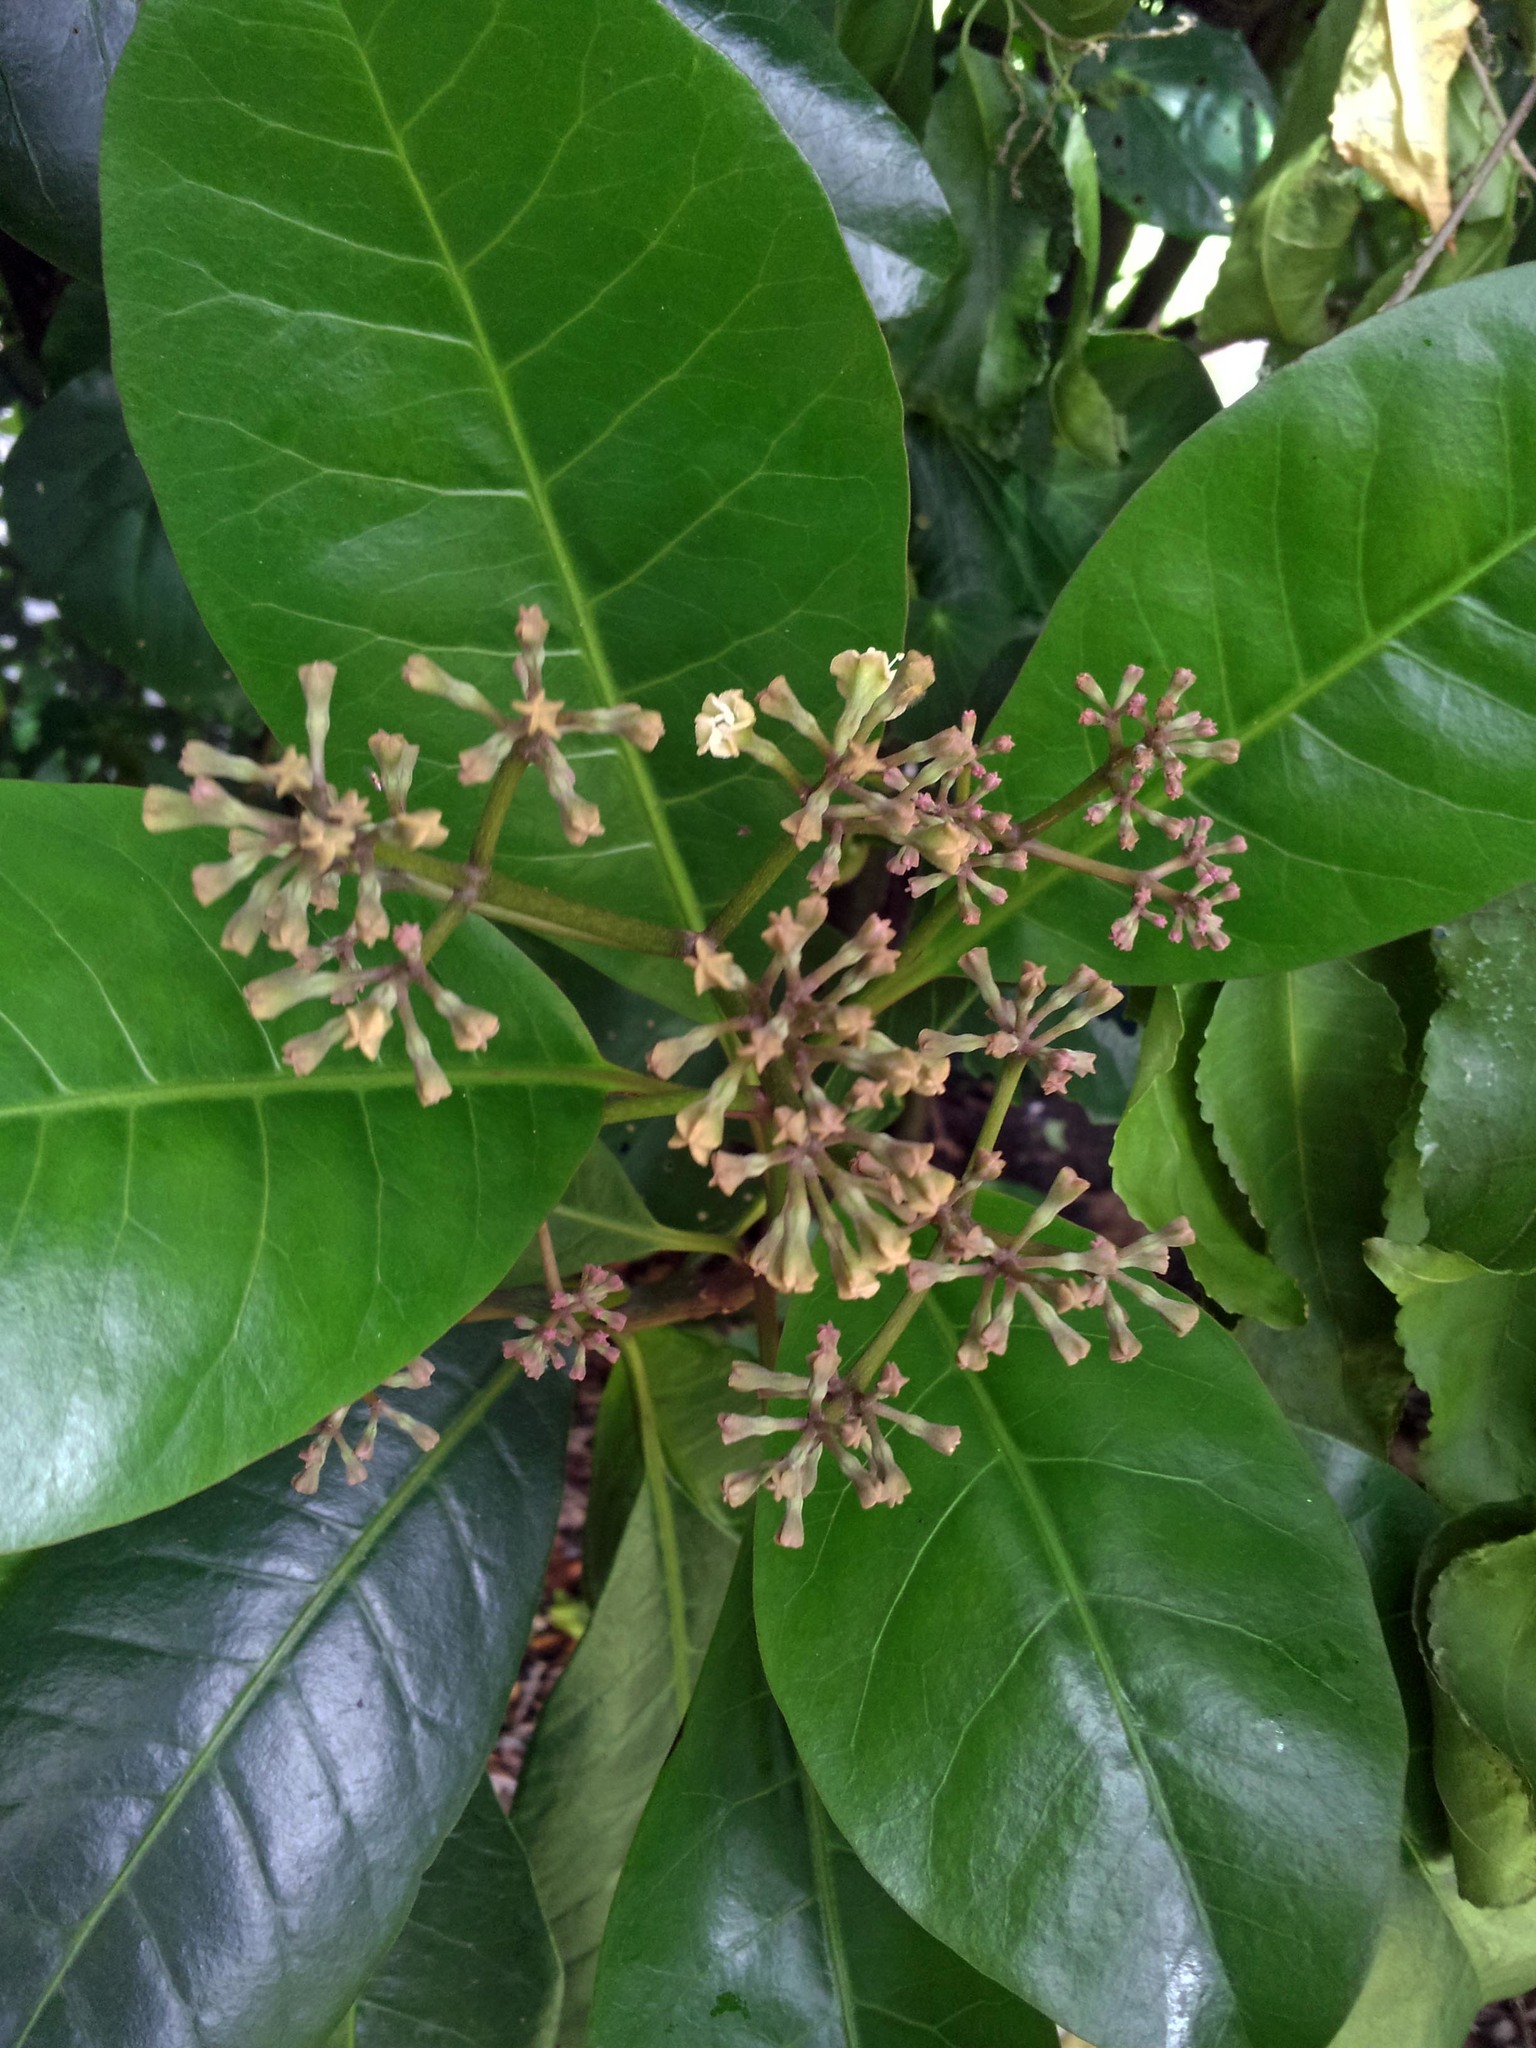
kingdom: Plantae
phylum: Tracheophyta
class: Magnoliopsida
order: Caryophyllales
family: Nyctaginaceae
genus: Ceodes
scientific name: Ceodes brunoniana
